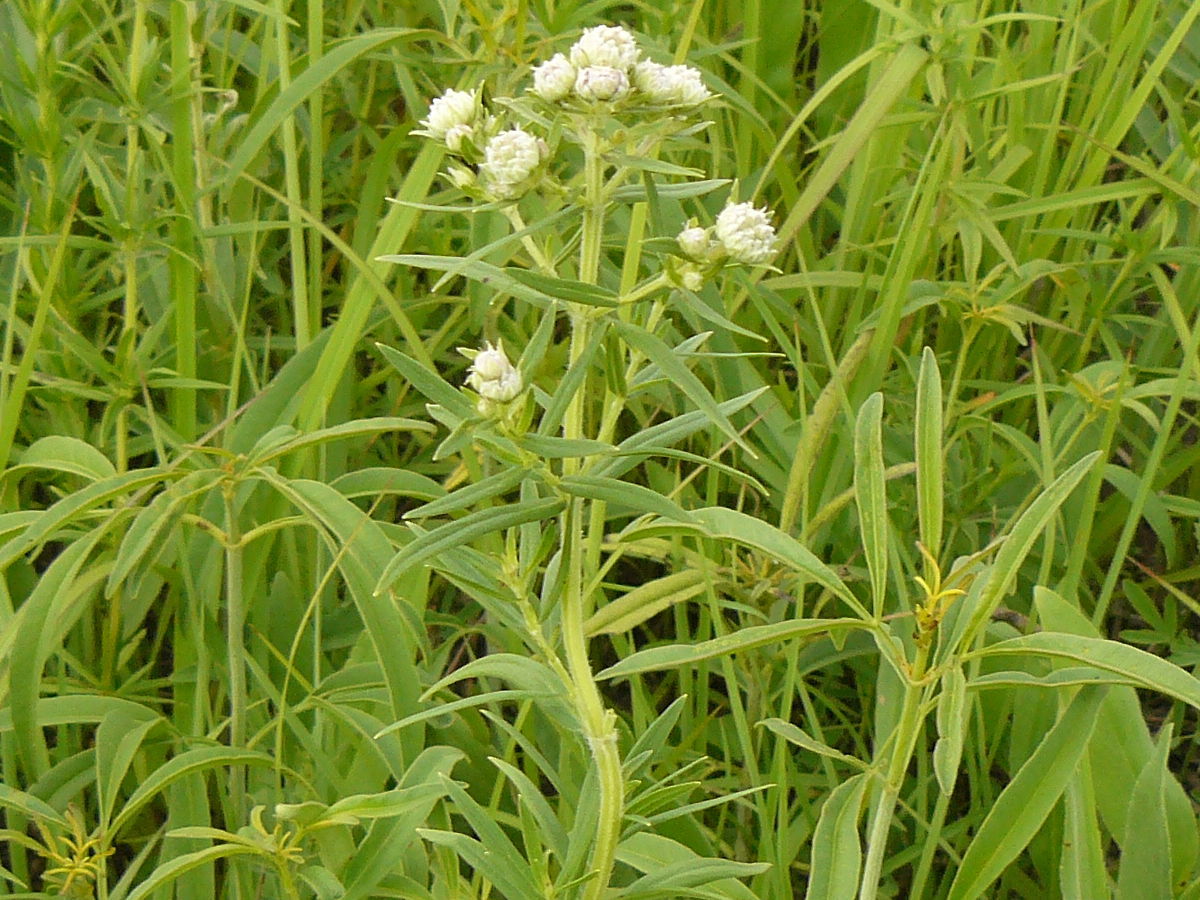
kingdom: Plantae
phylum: Tracheophyta
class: Magnoliopsida
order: Lamiales
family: Lamiaceae
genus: Pycnanthemum
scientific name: Pycnanthemum virginianum
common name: Virginia mountain-mint
